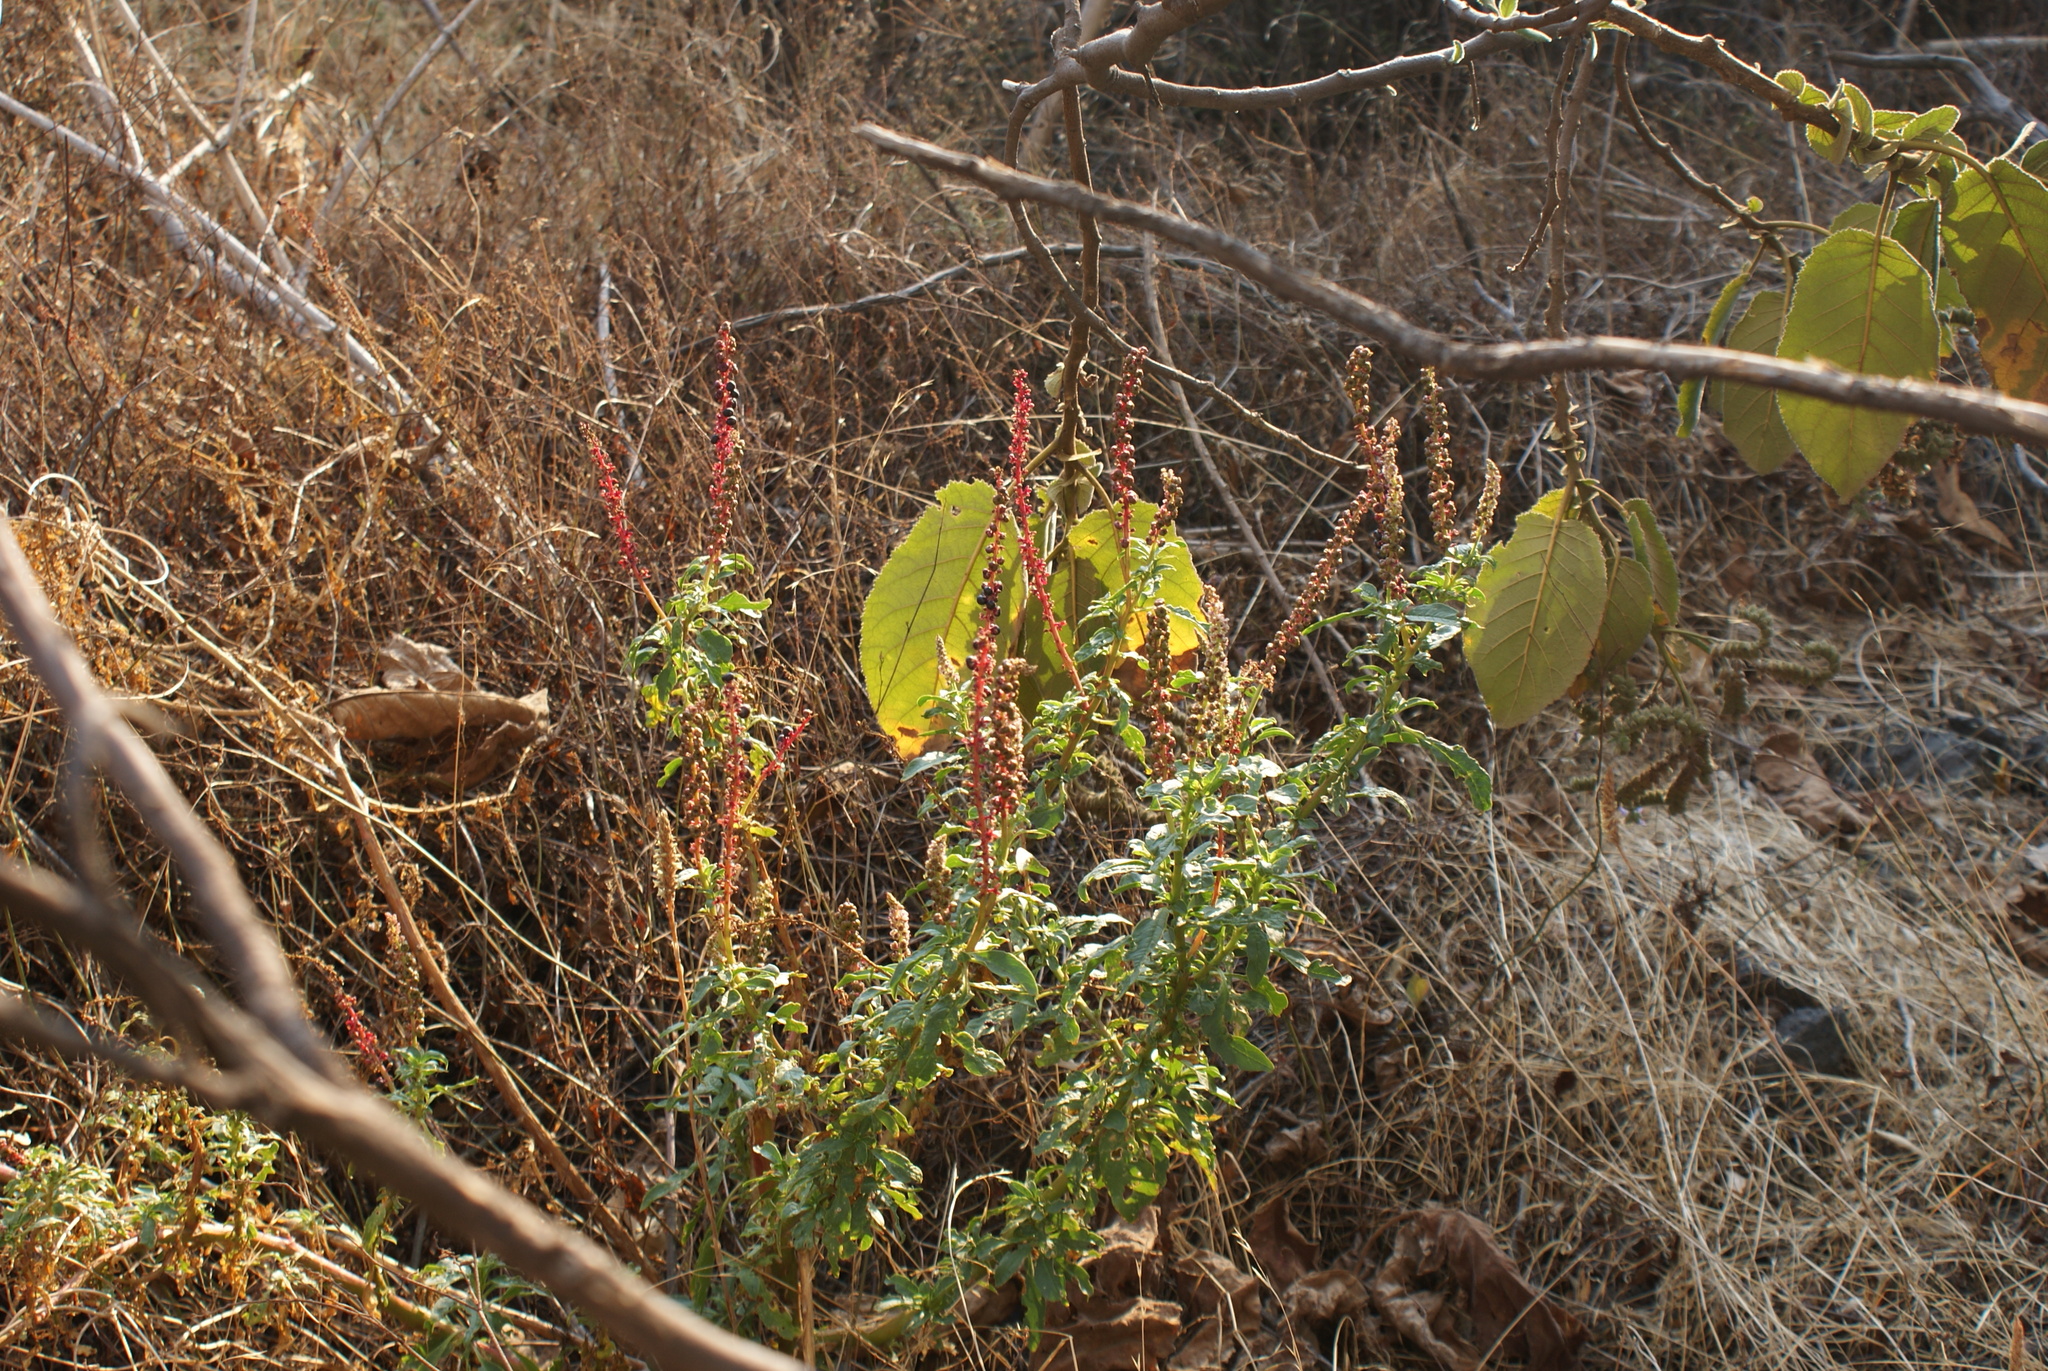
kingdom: Plantae
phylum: Tracheophyta
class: Magnoliopsida
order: Caryophyllales
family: Phytolaccaceae
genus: Phytolacca
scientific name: Phytolacca icosandra
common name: Button pokeweed
